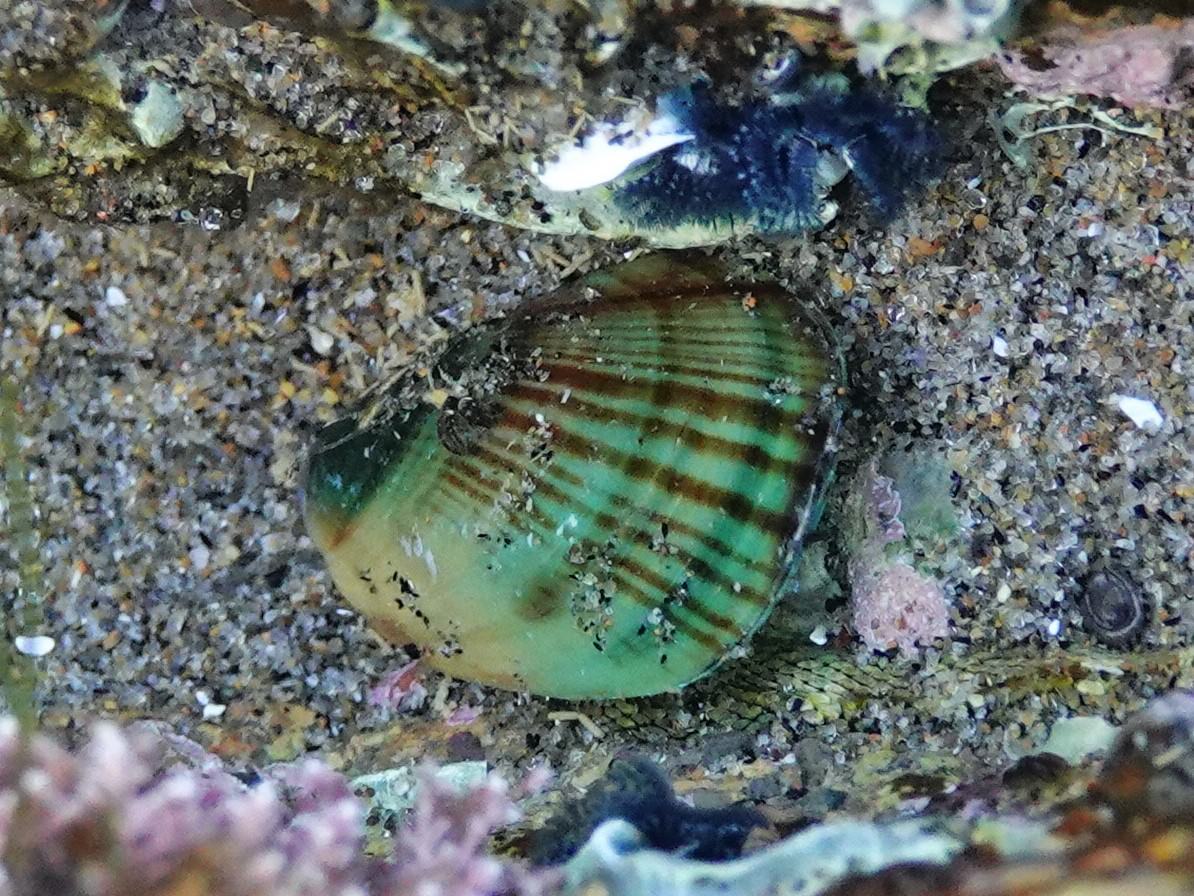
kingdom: Animalia
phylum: Mollusca
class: Bivalvia
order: Mytilida
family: Mytilidae
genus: Perna
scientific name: Perna canaliculus
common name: New zealand greenshelltm
